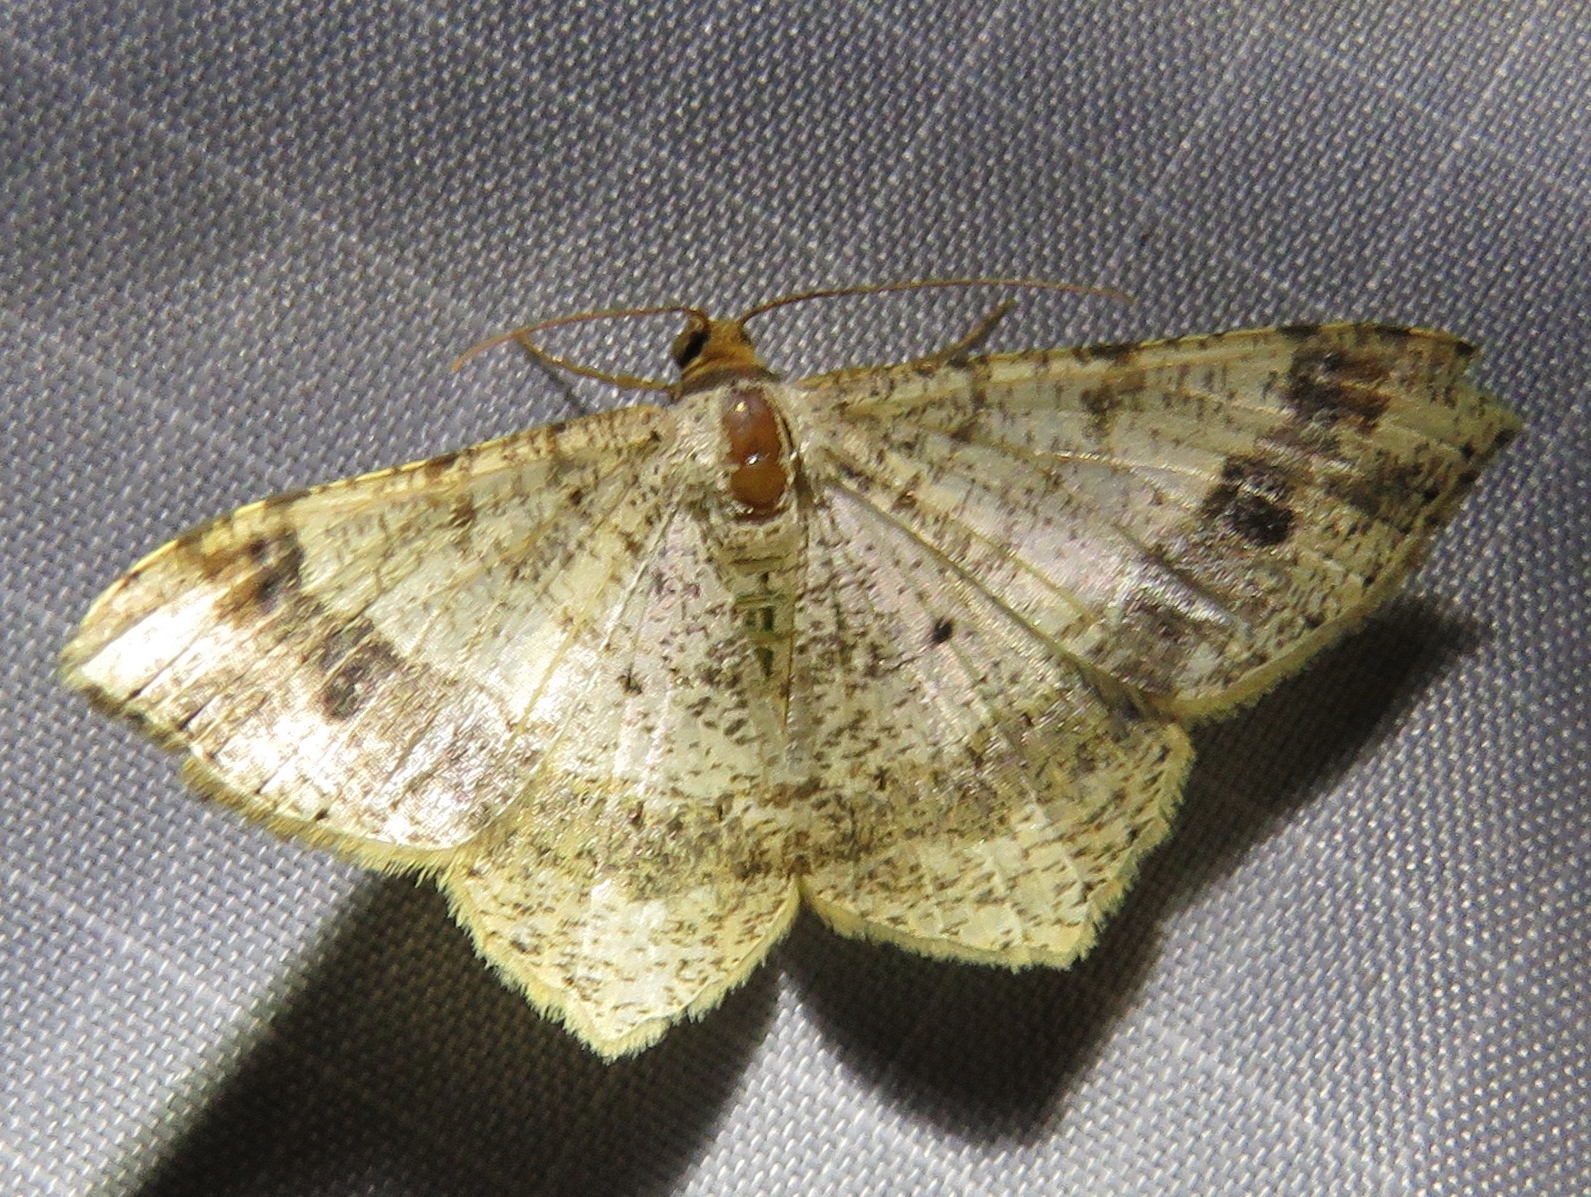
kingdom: Animalia
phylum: Arthropoda
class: Insecta
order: Lepidoptera
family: Geometridae
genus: Macaria
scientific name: Macaria abydata
